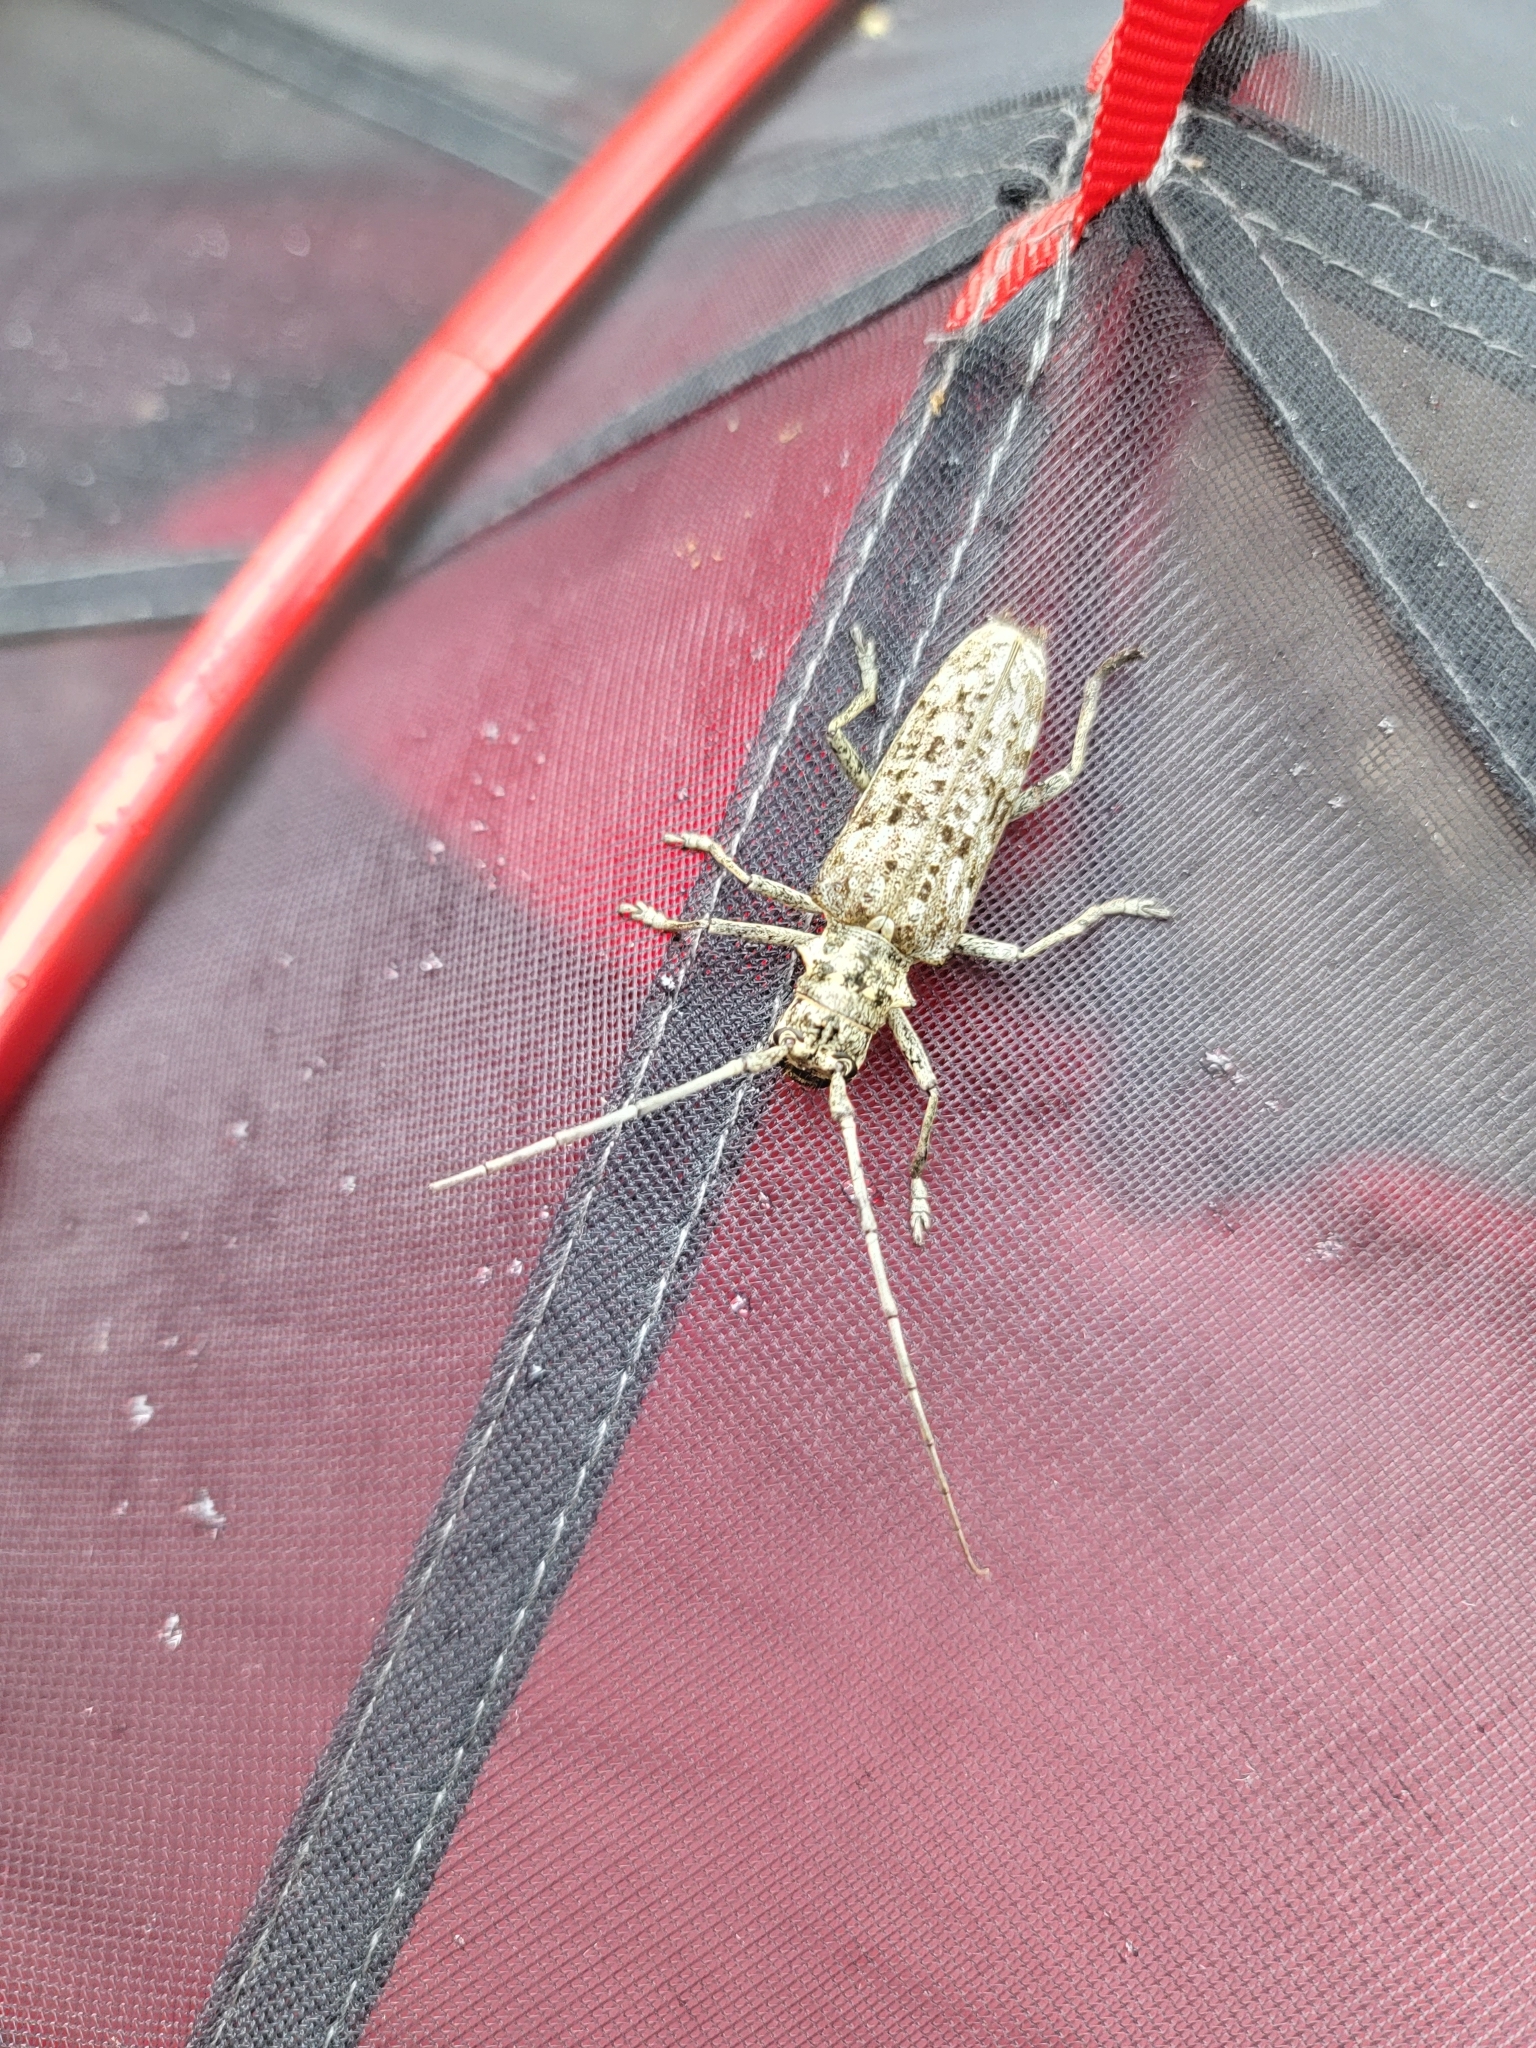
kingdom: Animalia
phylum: Arthropoda
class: Insecta
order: Coleoptera
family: Cerambycidae
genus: Monochamus
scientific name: Monochamus notatus
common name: Northeastern pine sawyer beetle
